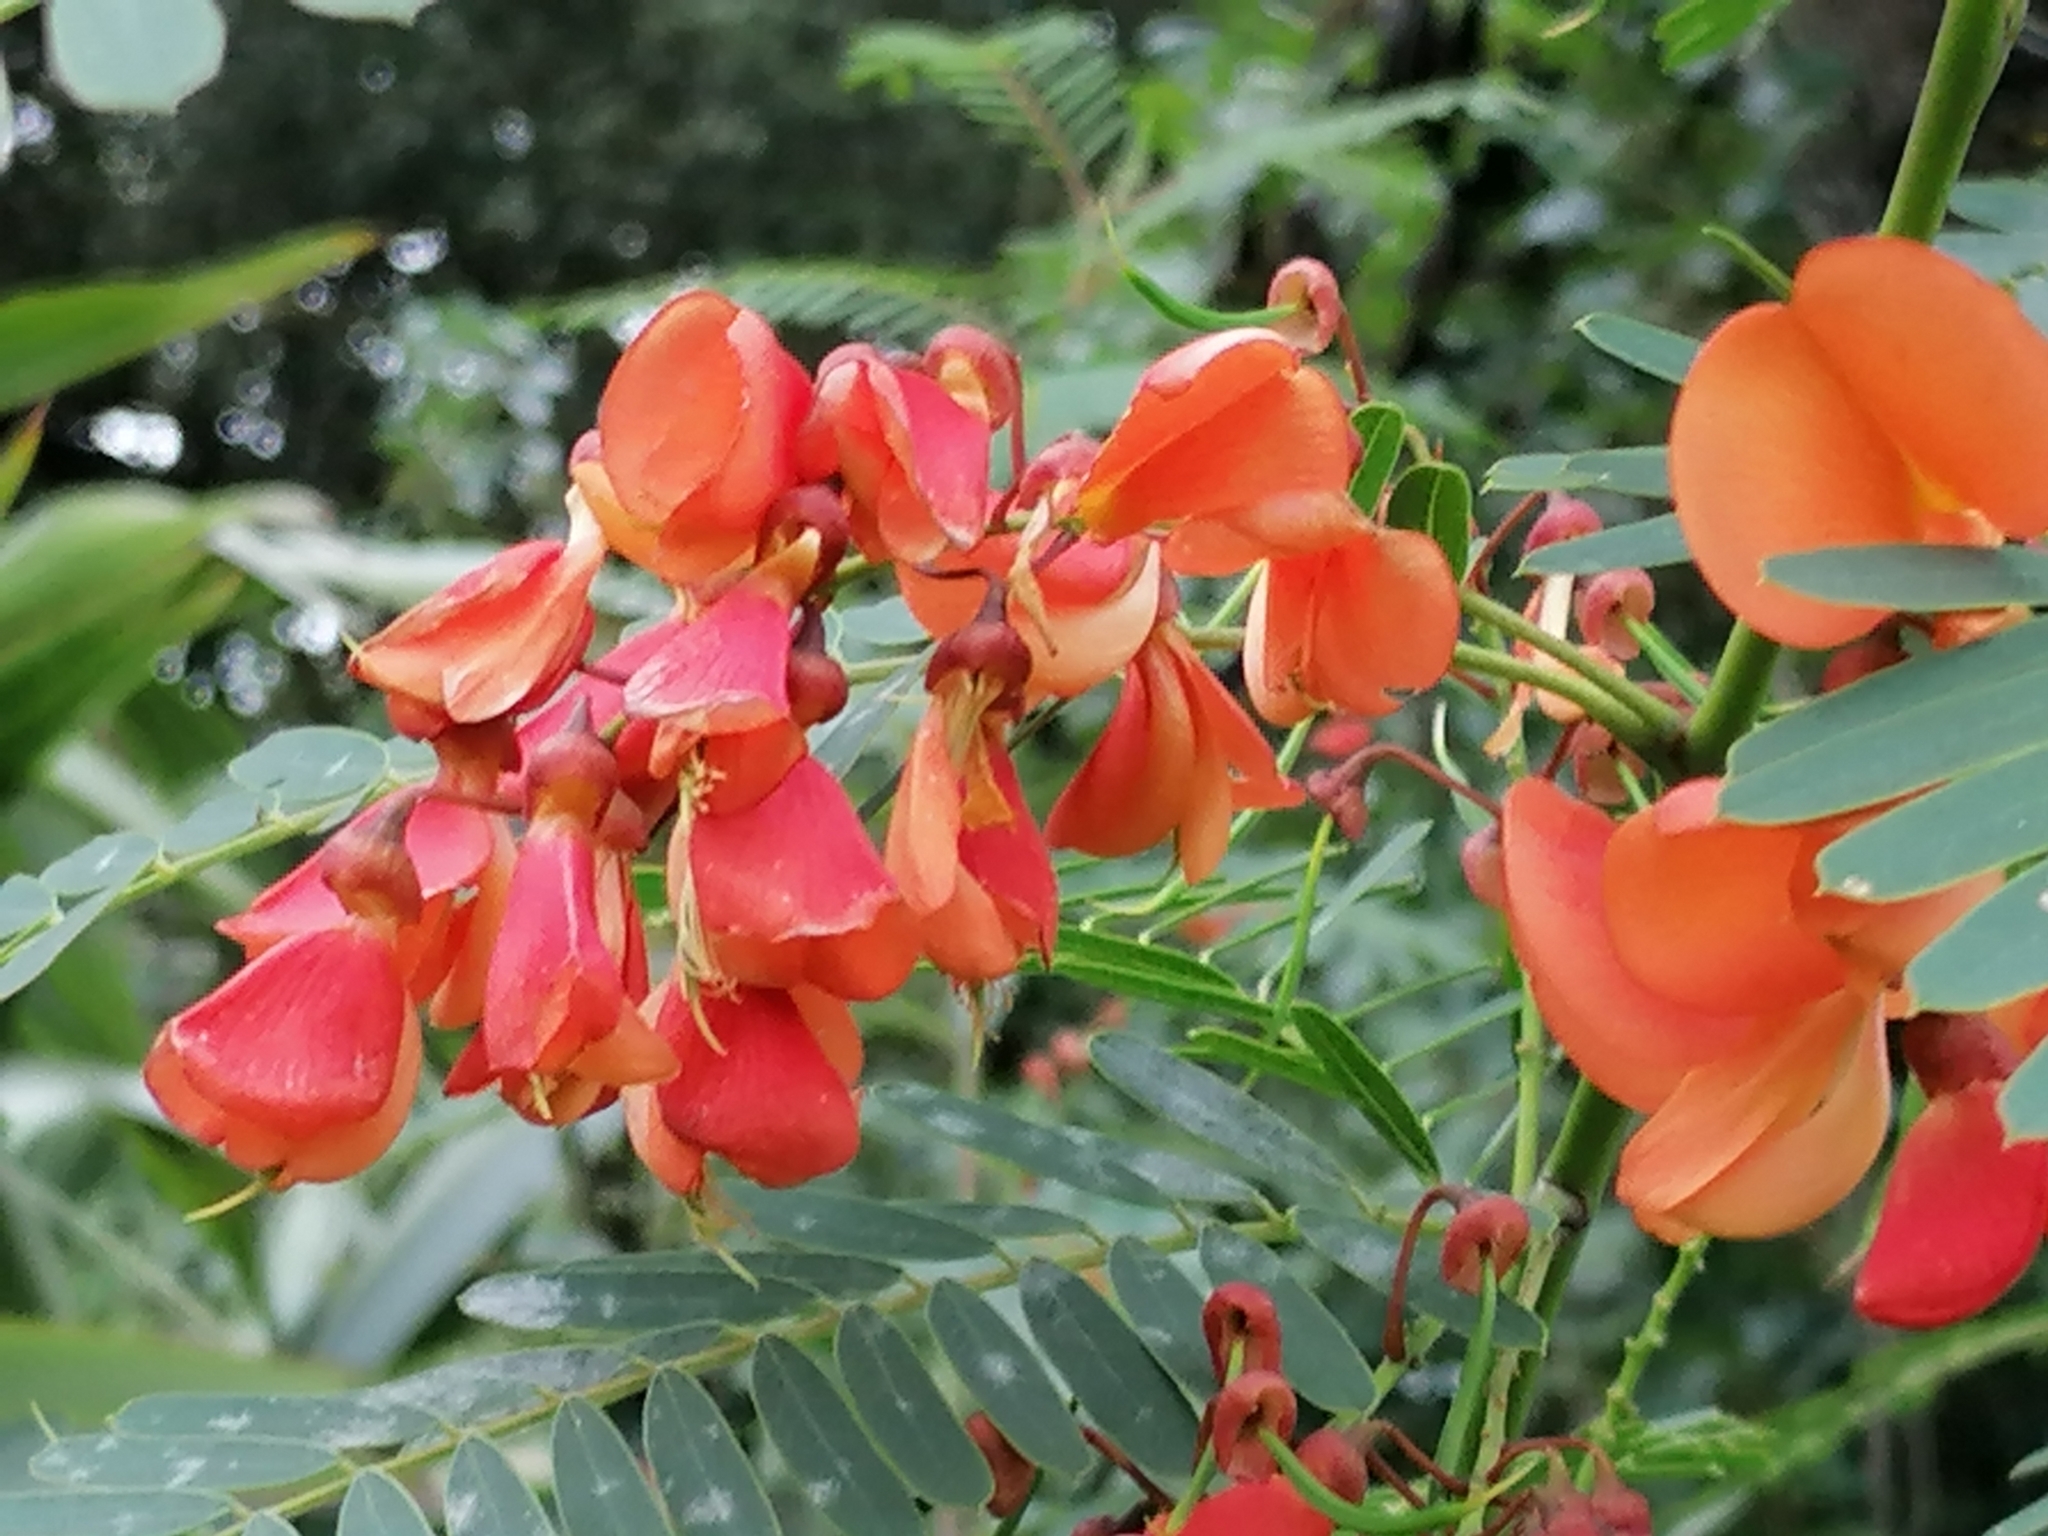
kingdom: Plantae
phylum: Tracheophyta
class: Magnoliopsida
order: Fabales
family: Fabaceae
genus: Sesbania
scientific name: Sesbania punicea
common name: Rattlebox
